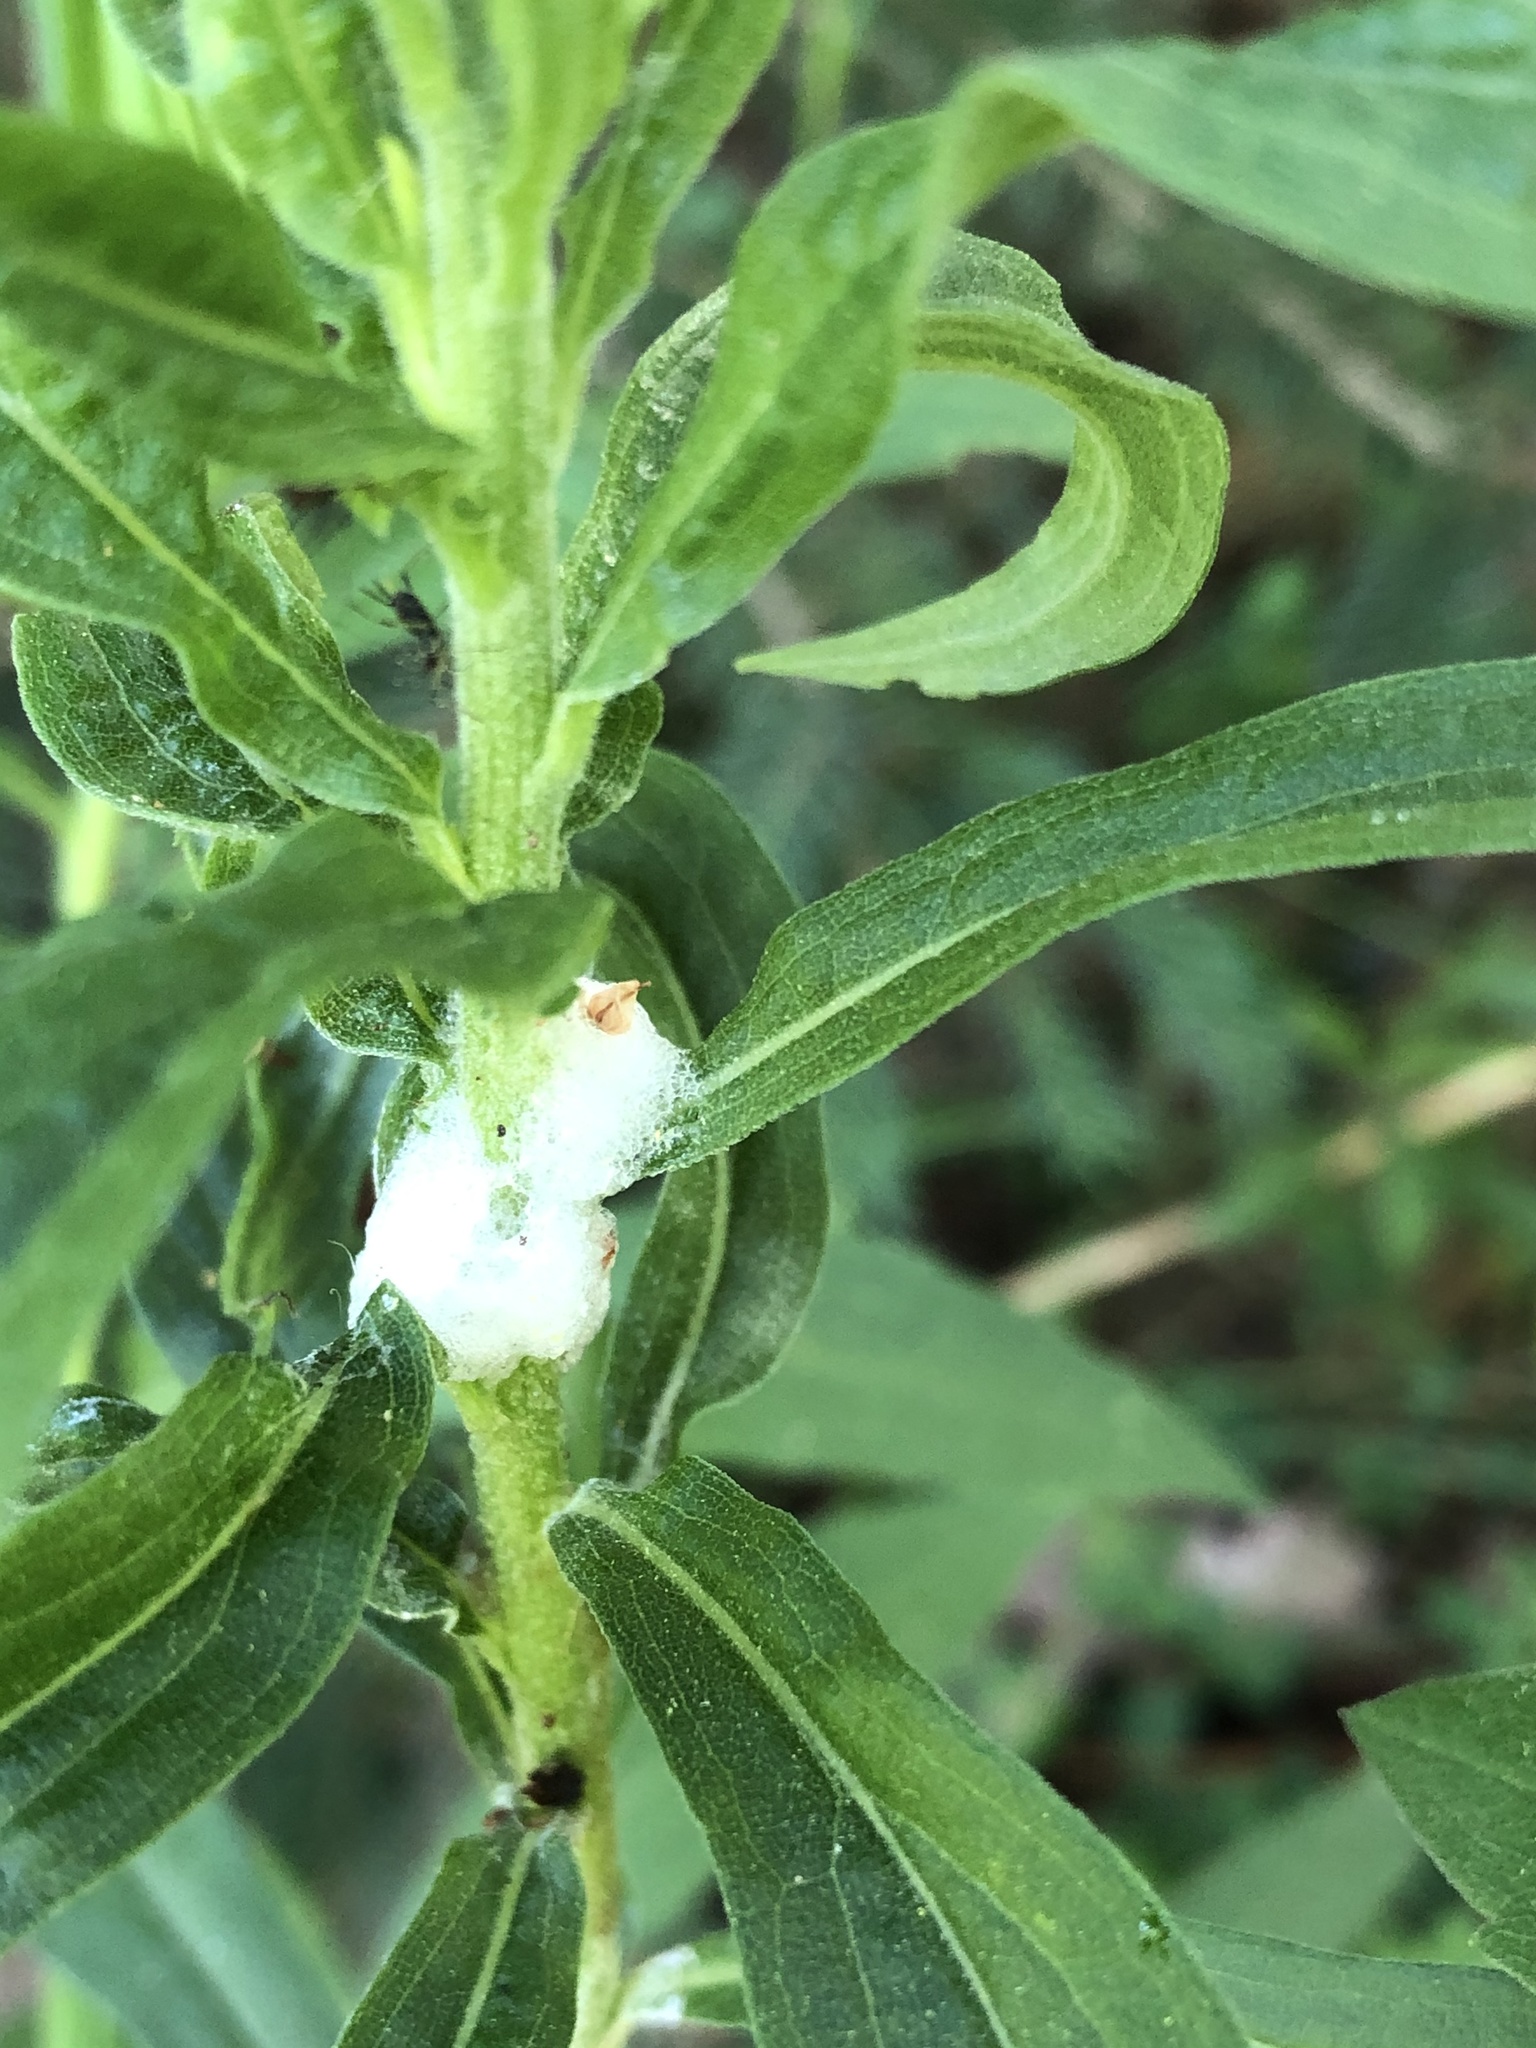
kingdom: Animalia
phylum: Arthropoda
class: Insecta
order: Hemiptera
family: Aphrophoridae
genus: Philaenus
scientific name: Philaenus spumarius
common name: Meadow spittlebug
